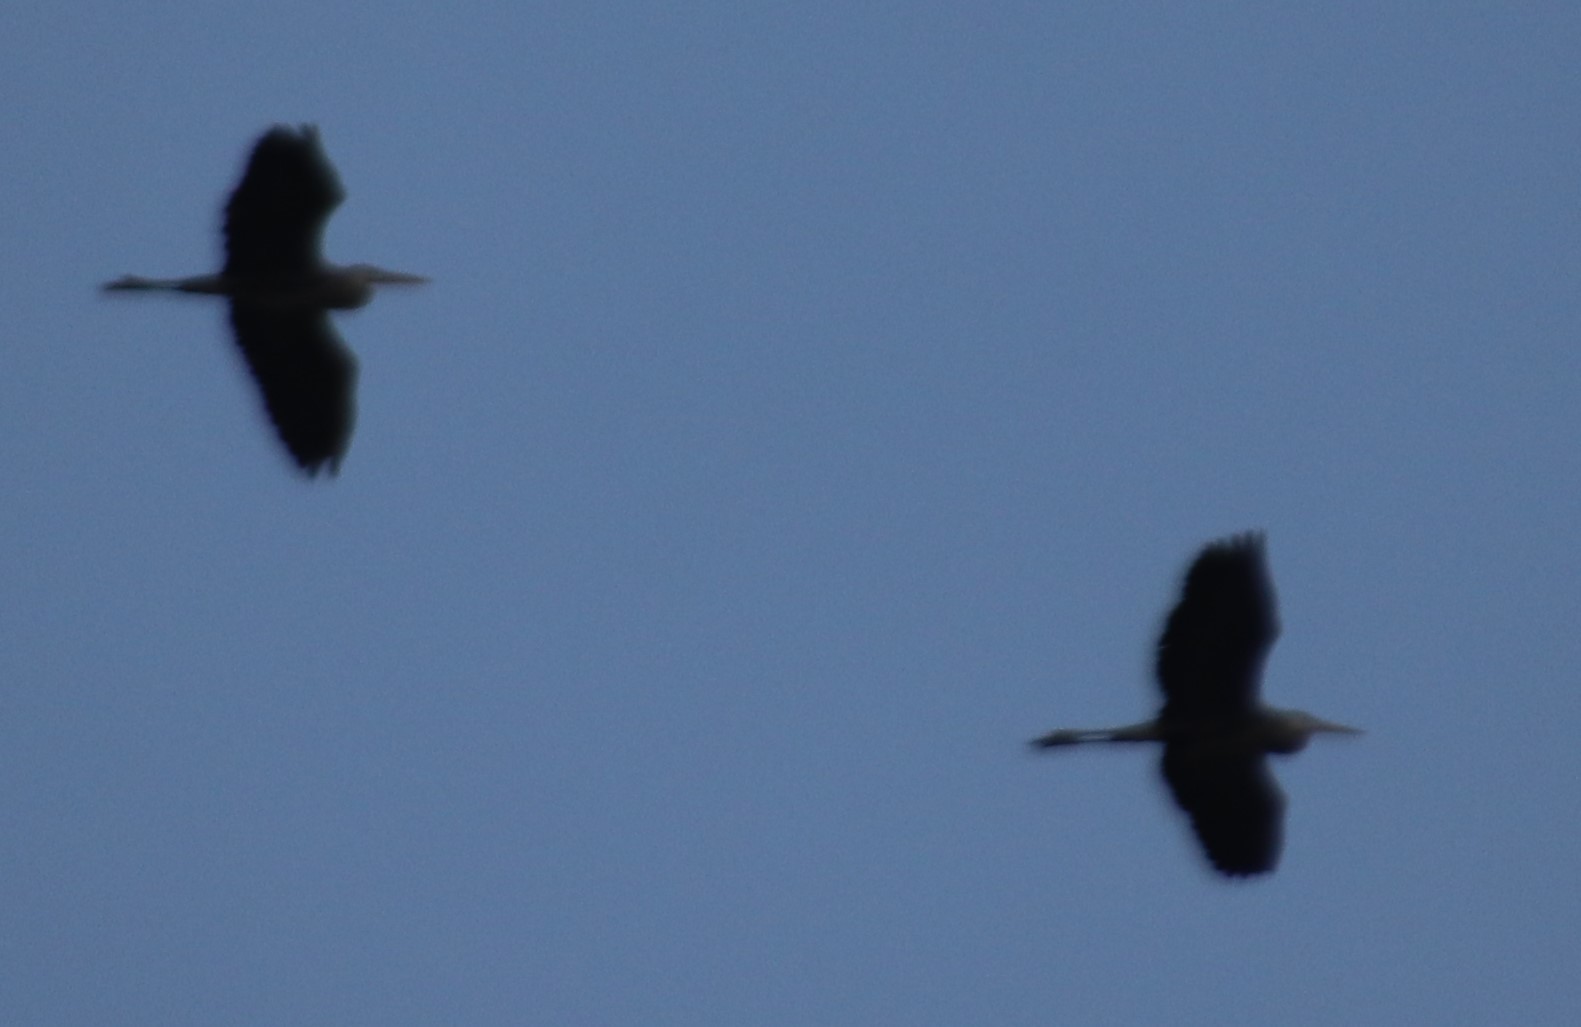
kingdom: Animalia
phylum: Chordata
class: Aves
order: Pelecaniformes
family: Ardeidae
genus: Ardea
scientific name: Ardea herodias
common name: Great blue heron
